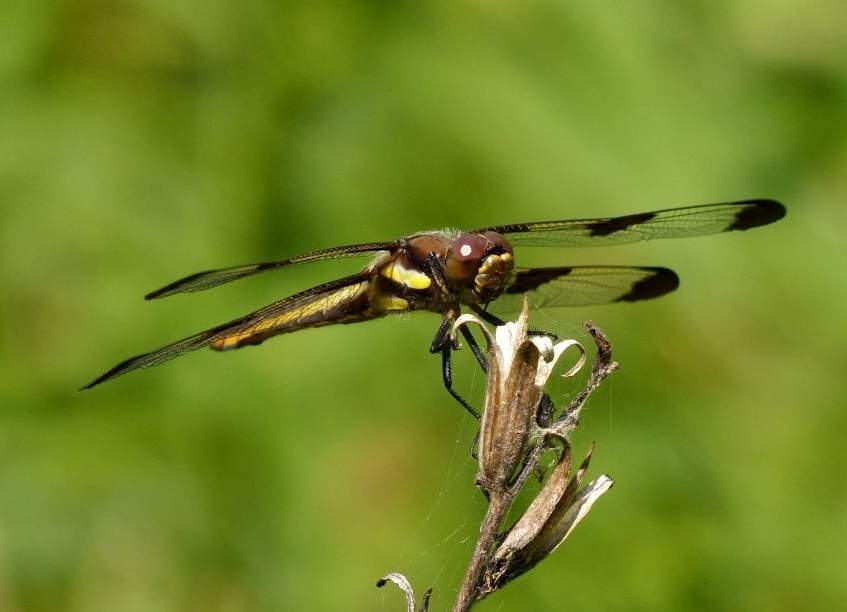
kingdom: Animalia
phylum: Arthropoda
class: Insecta
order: Odonata
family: Libellulidae
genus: Libellula
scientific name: Libellula pulchella
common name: Twelve-spotted skimmer
